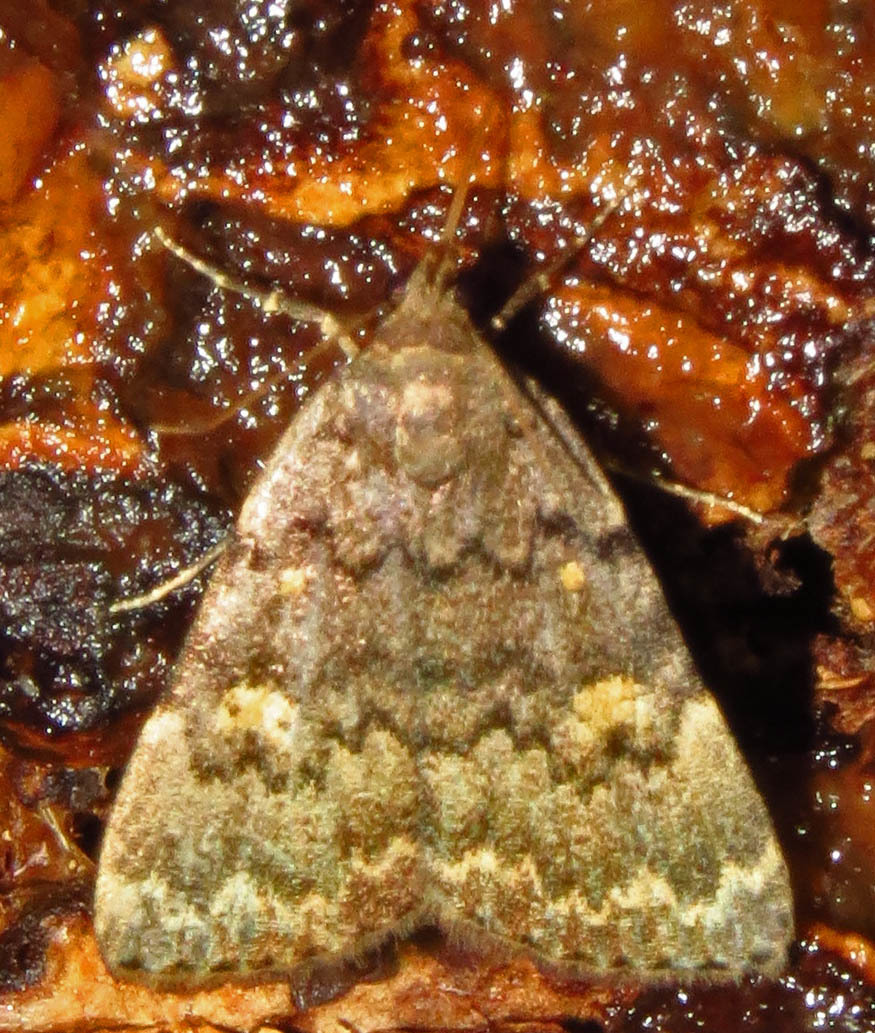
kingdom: Animalia
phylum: Arthropoda
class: Insecta
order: Lepidoptera
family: Erebidae
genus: Idia
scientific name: Idia aemula
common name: Common idia moth
